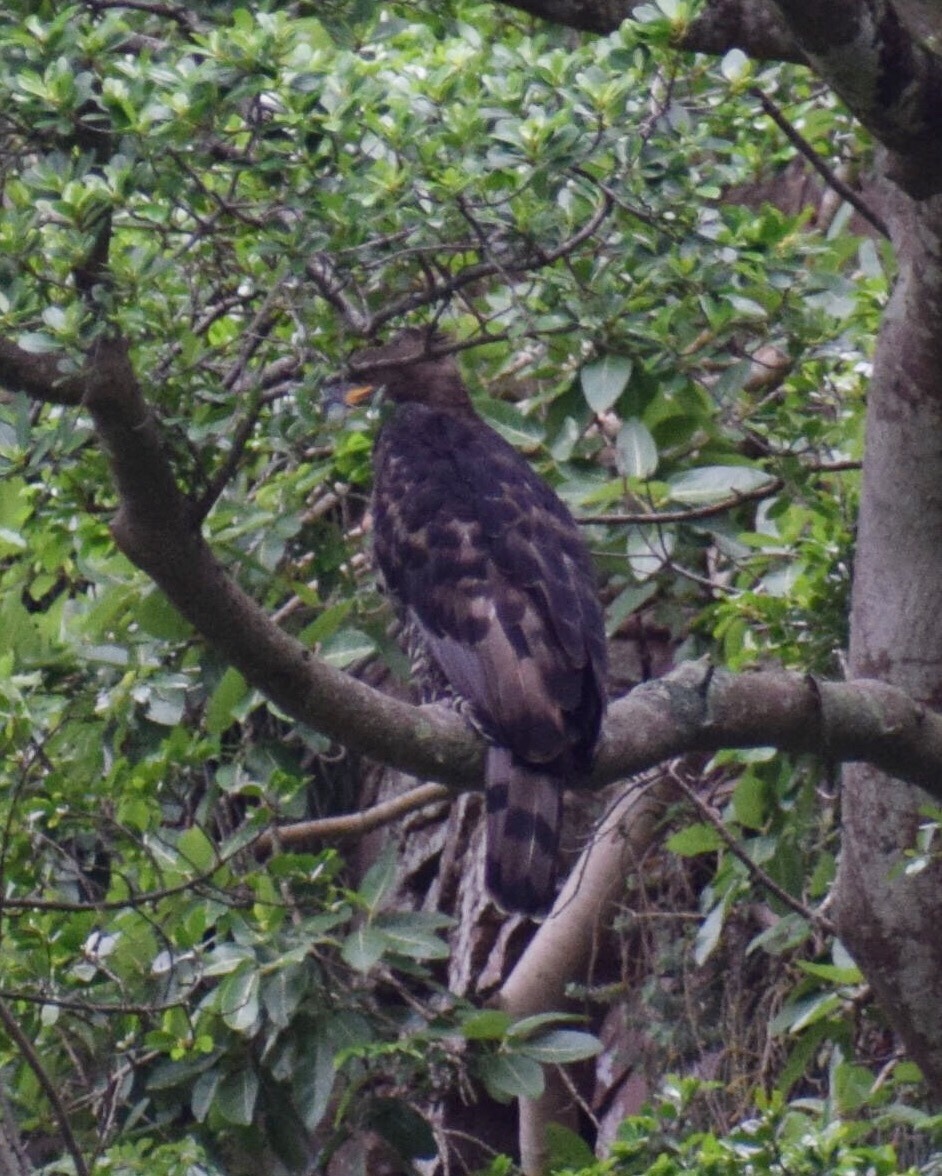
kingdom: Animalia
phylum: Chordata
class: Aves
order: Accipitriformes
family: Accipitridae
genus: Stephanoaetus
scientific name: Stephanoaetus coronatus
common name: Crowned eagle
